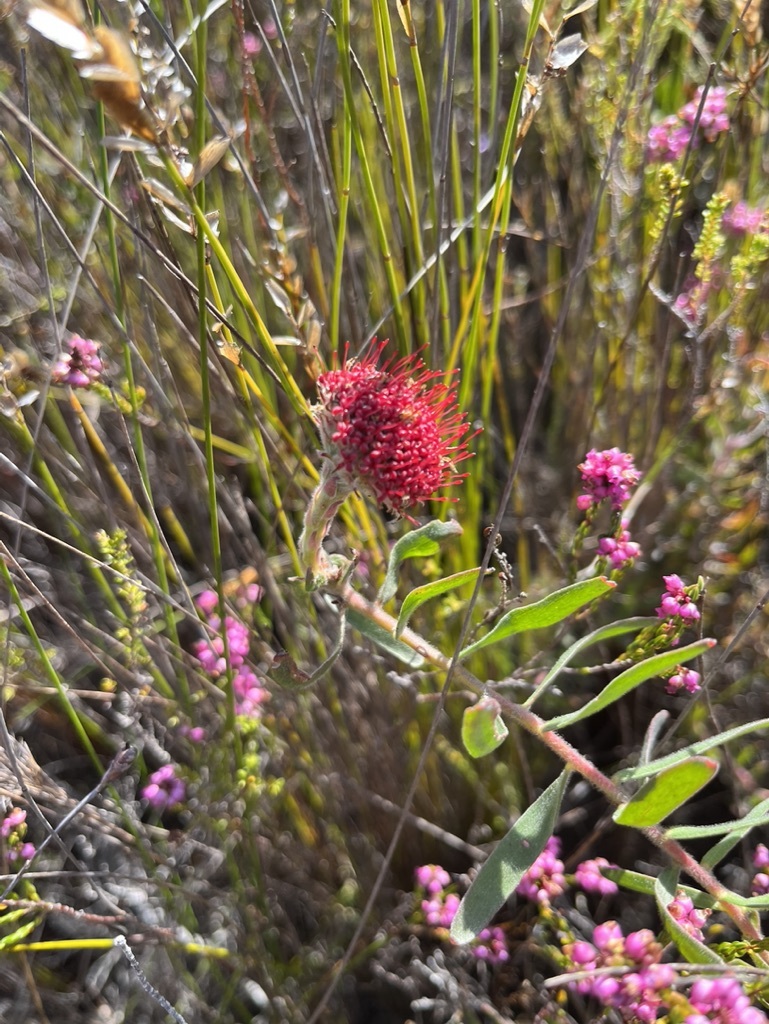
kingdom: Plantae
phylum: Tracheophyta
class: Magnoliopsida
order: Proteales
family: Proteaceae
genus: Leucospermum
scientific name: Leucospermum prostratum
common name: Yellow-trailing pincushion
